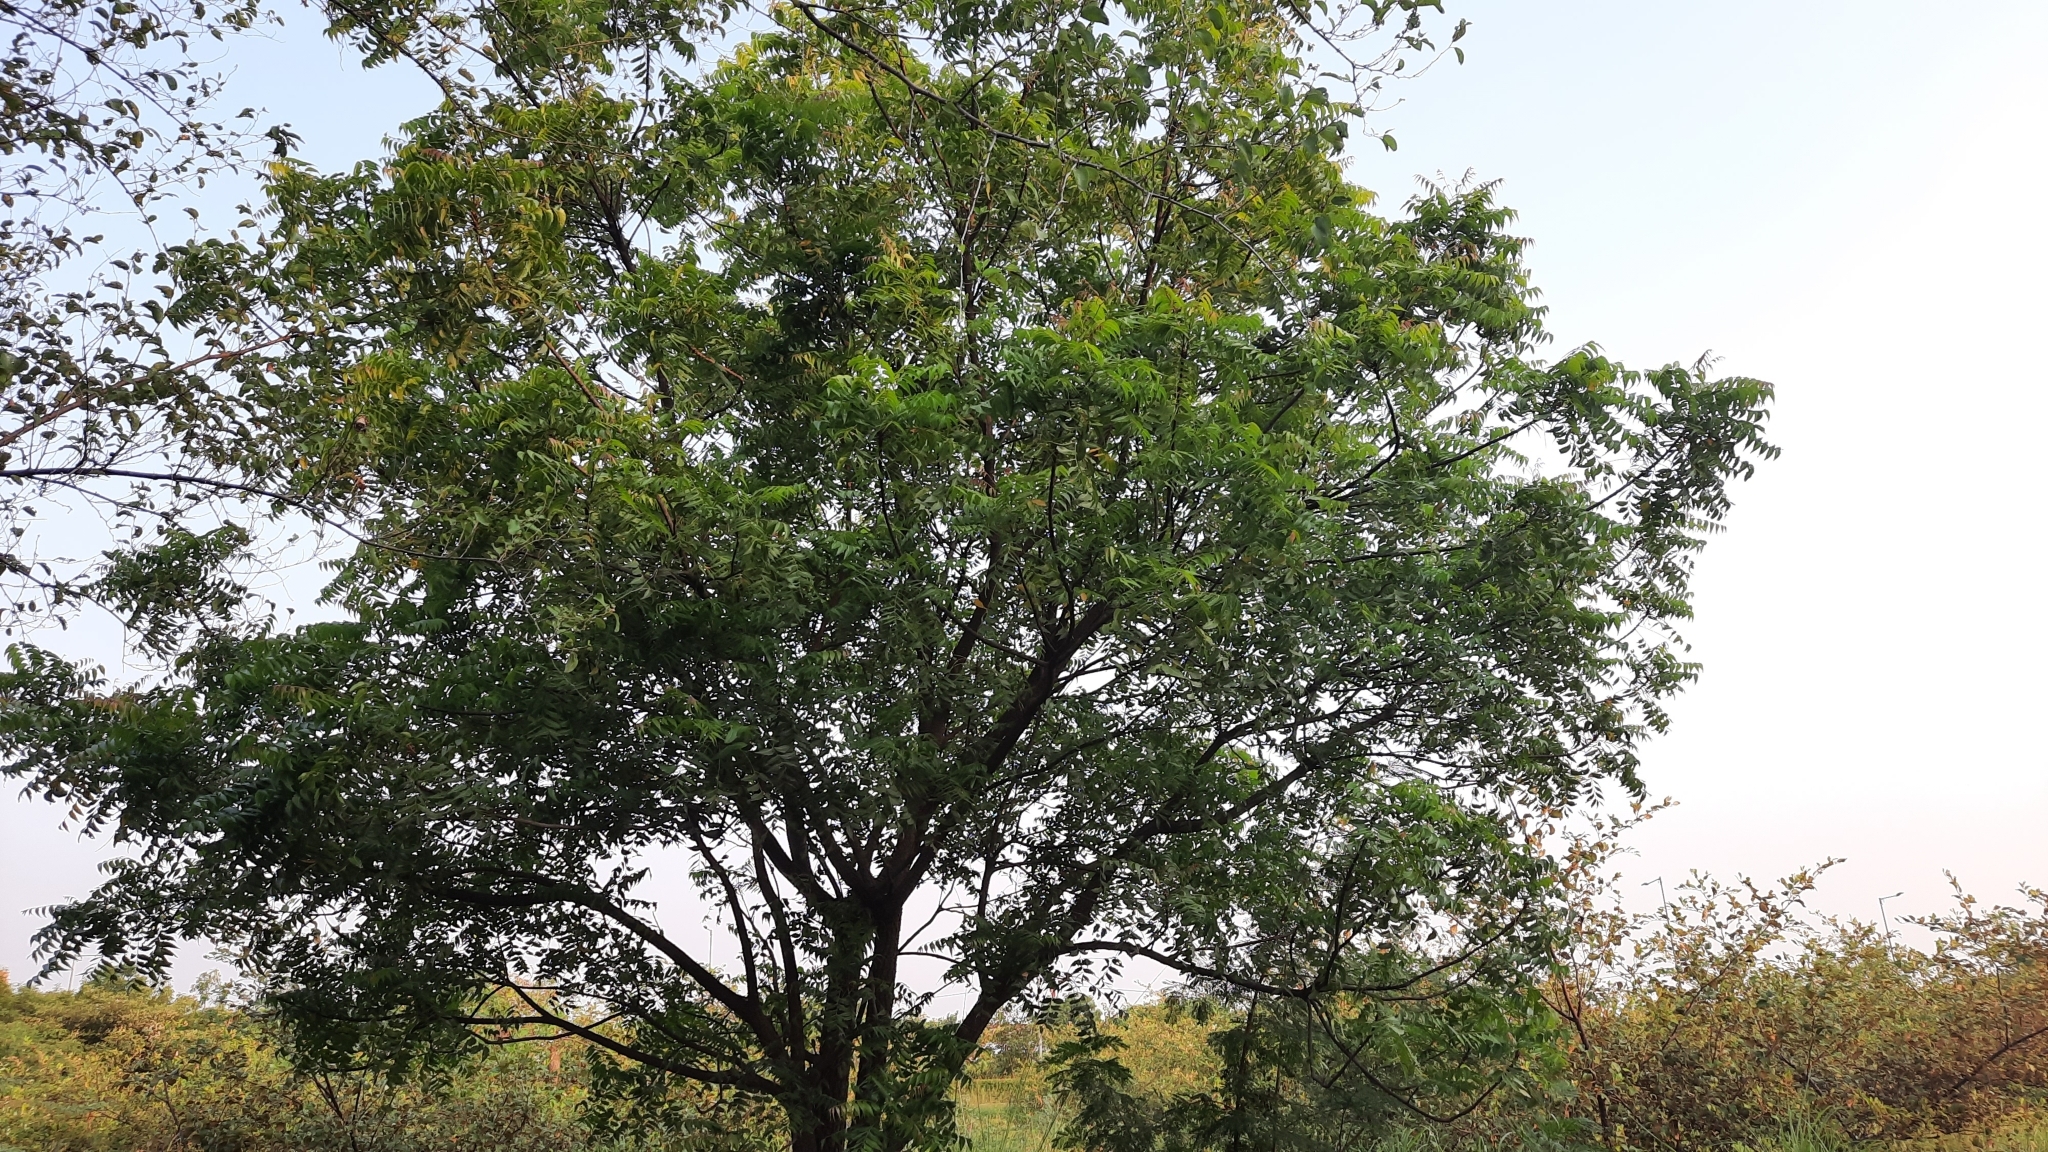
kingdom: Plantae
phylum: Tracheophyta
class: Magnoliopsida
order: Sapindales
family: Meliaceae
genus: Azadirachta
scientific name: Azadirachta indica
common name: Neem
